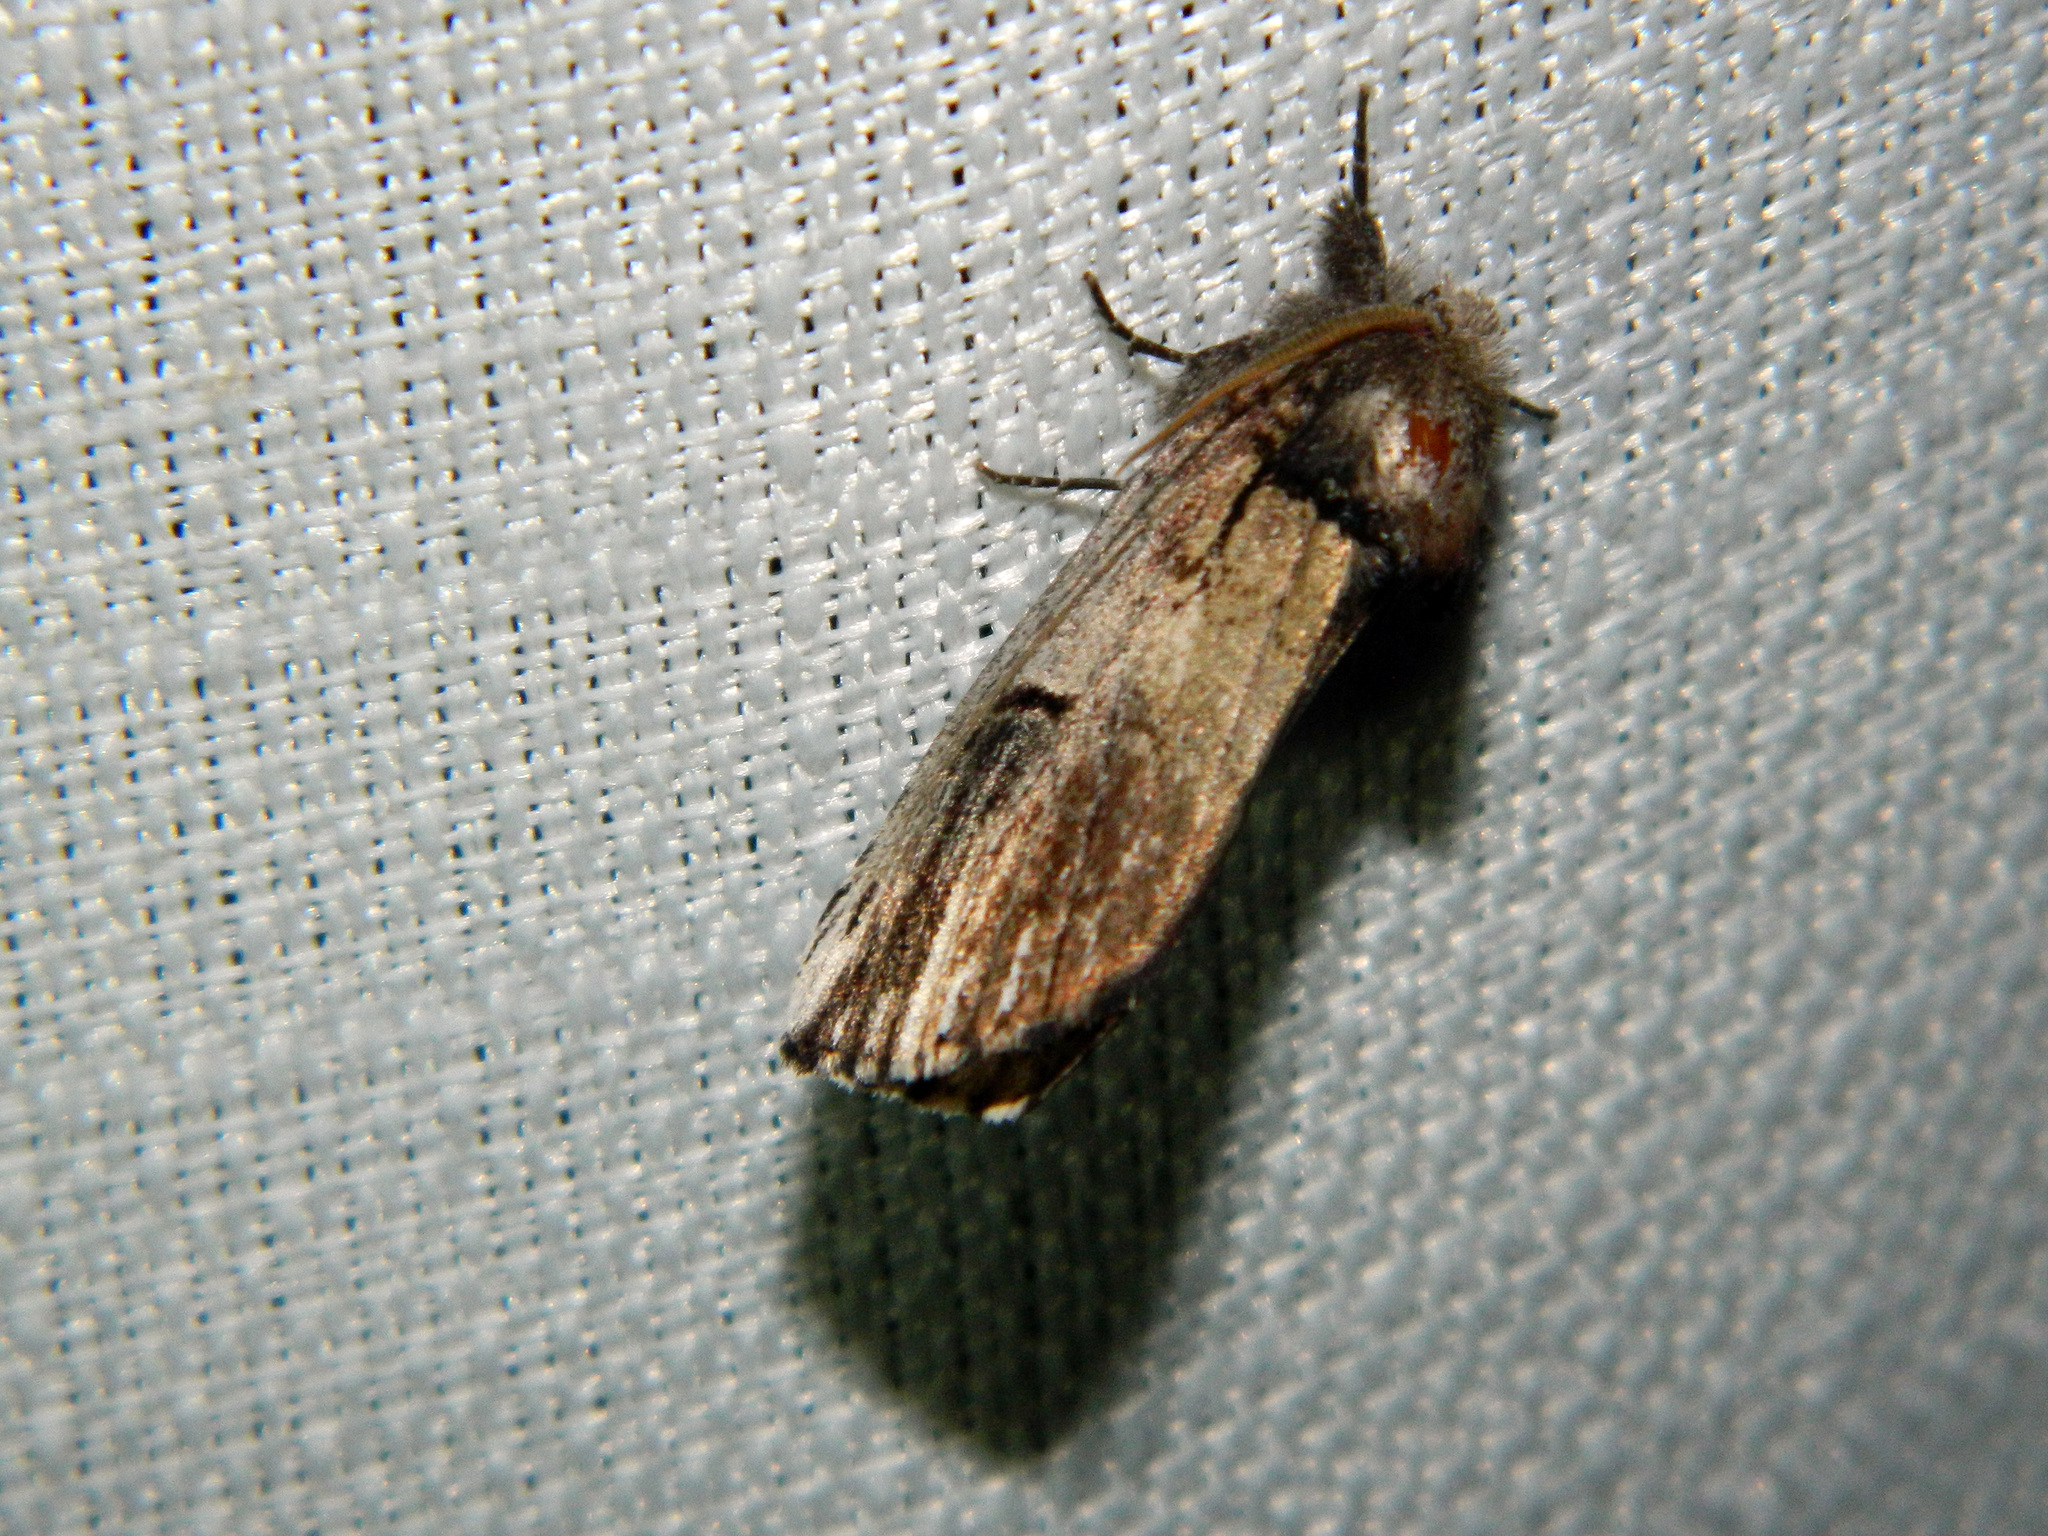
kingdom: Animalia
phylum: Arthropoda
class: Insecta
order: Lepidoptera
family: Notodontidae
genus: Schizura
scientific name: Schizura badia
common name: Chestnut schizura
